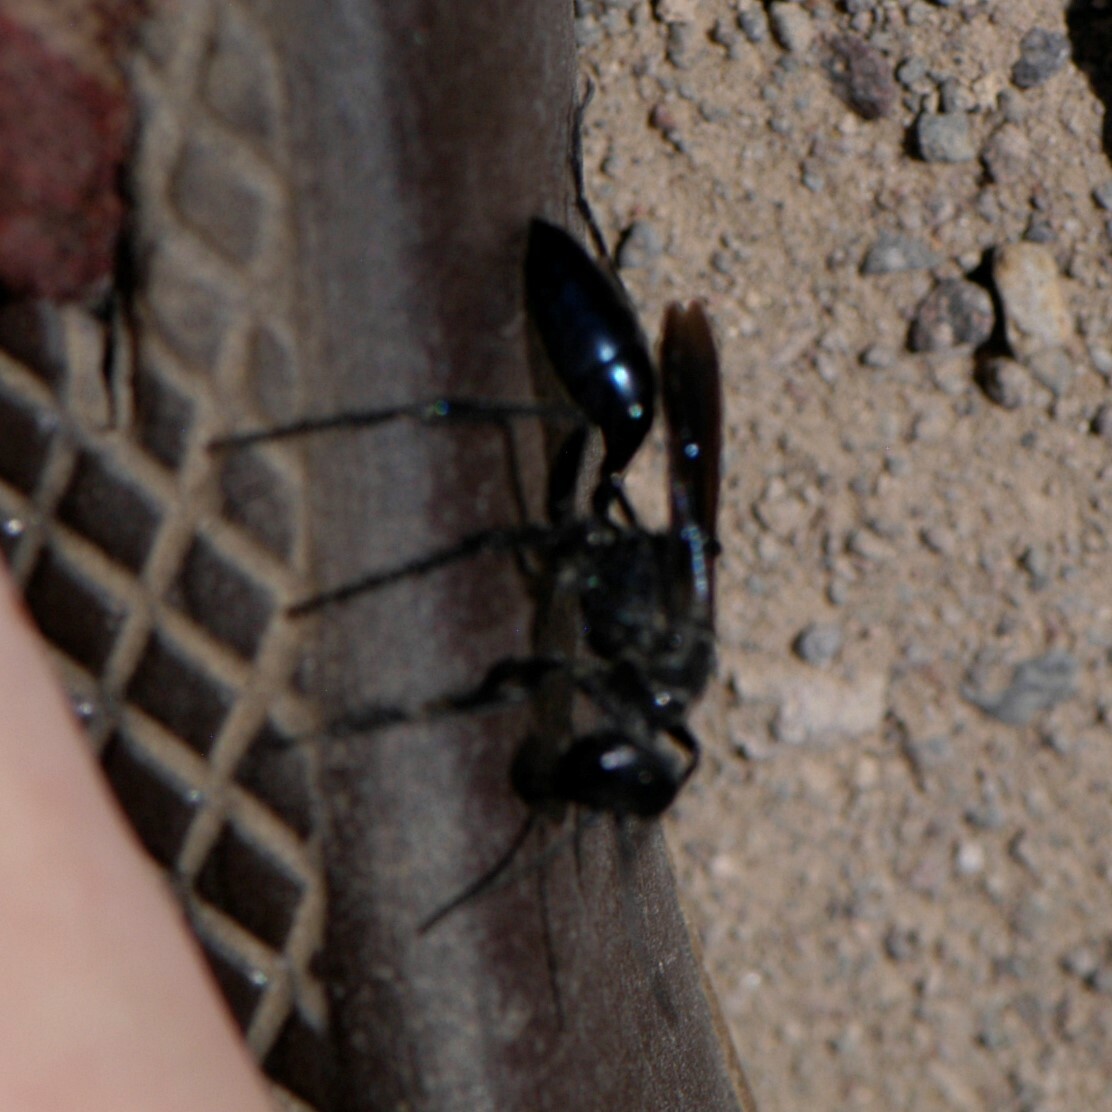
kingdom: Animalia
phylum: Arthropoda
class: Insecta
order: Hymenoptera
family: Sphecidae
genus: Podalonia
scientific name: Podalonia
